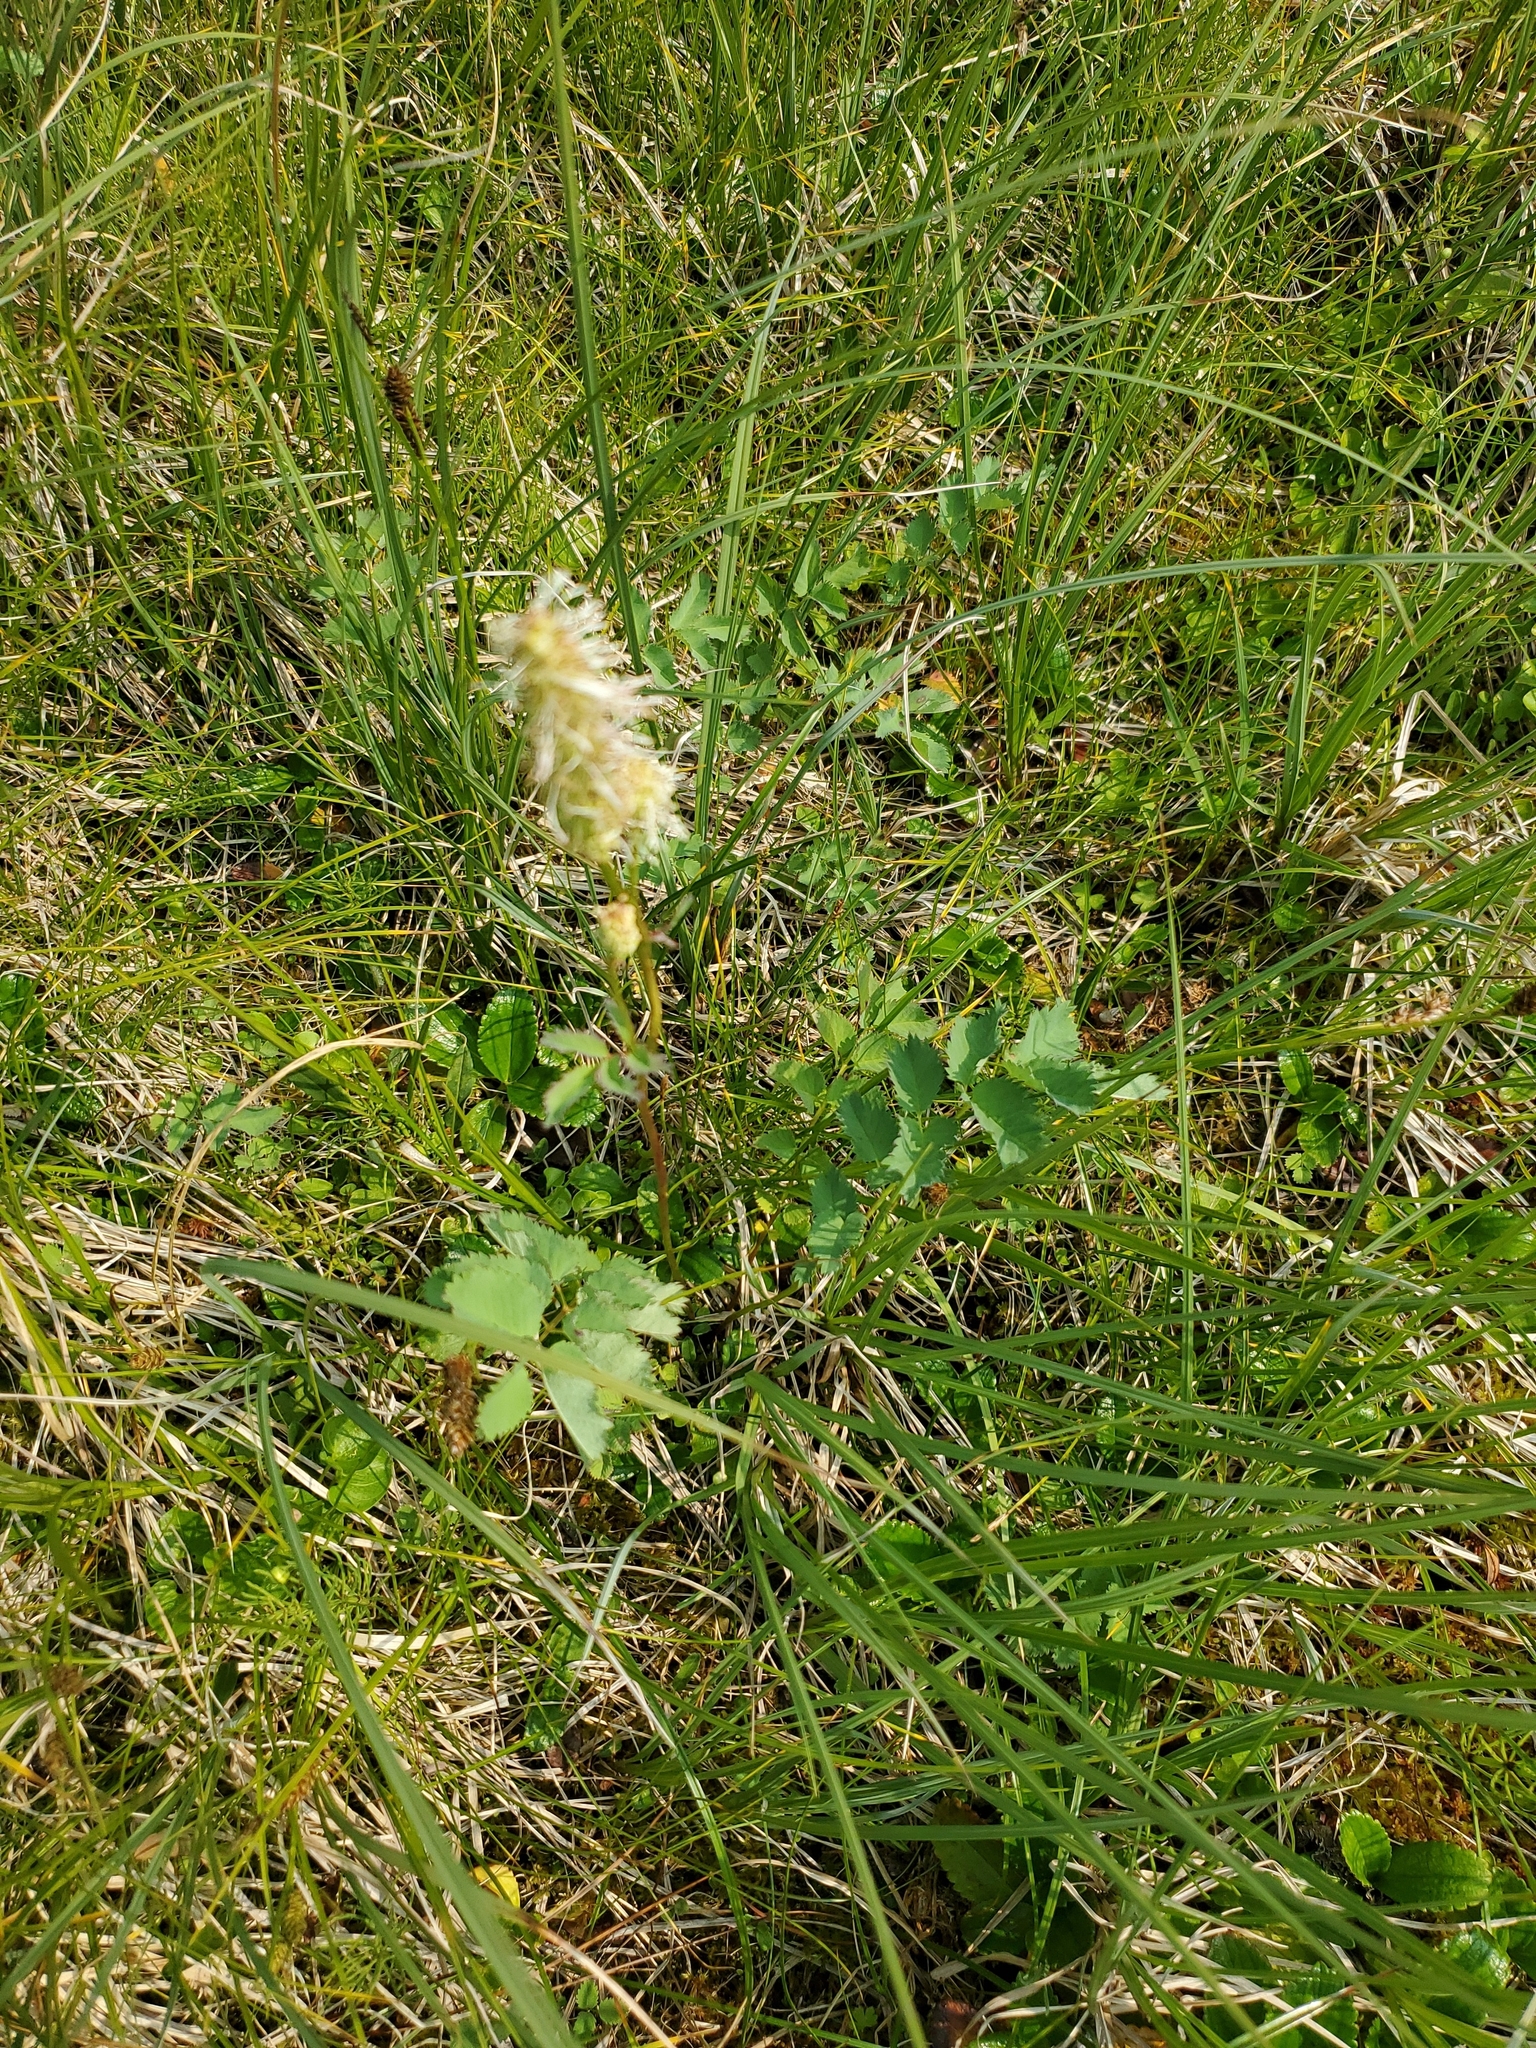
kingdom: Plantae
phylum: Tracheophyta
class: Magnoliopsida
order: Rosales
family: Rosaceae
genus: Sanguisorba
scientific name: Sanguisorba stipulata
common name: Sitka burnet
